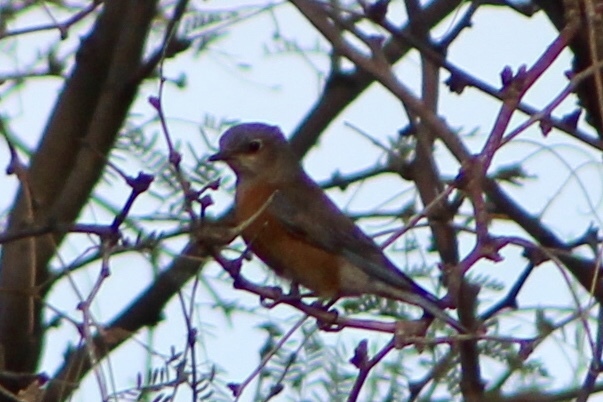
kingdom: Animalia
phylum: Chordata
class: Aves
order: Passeriformes
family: Turdidae
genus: Sialia
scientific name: Sialia mexicana
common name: Western bluebird
